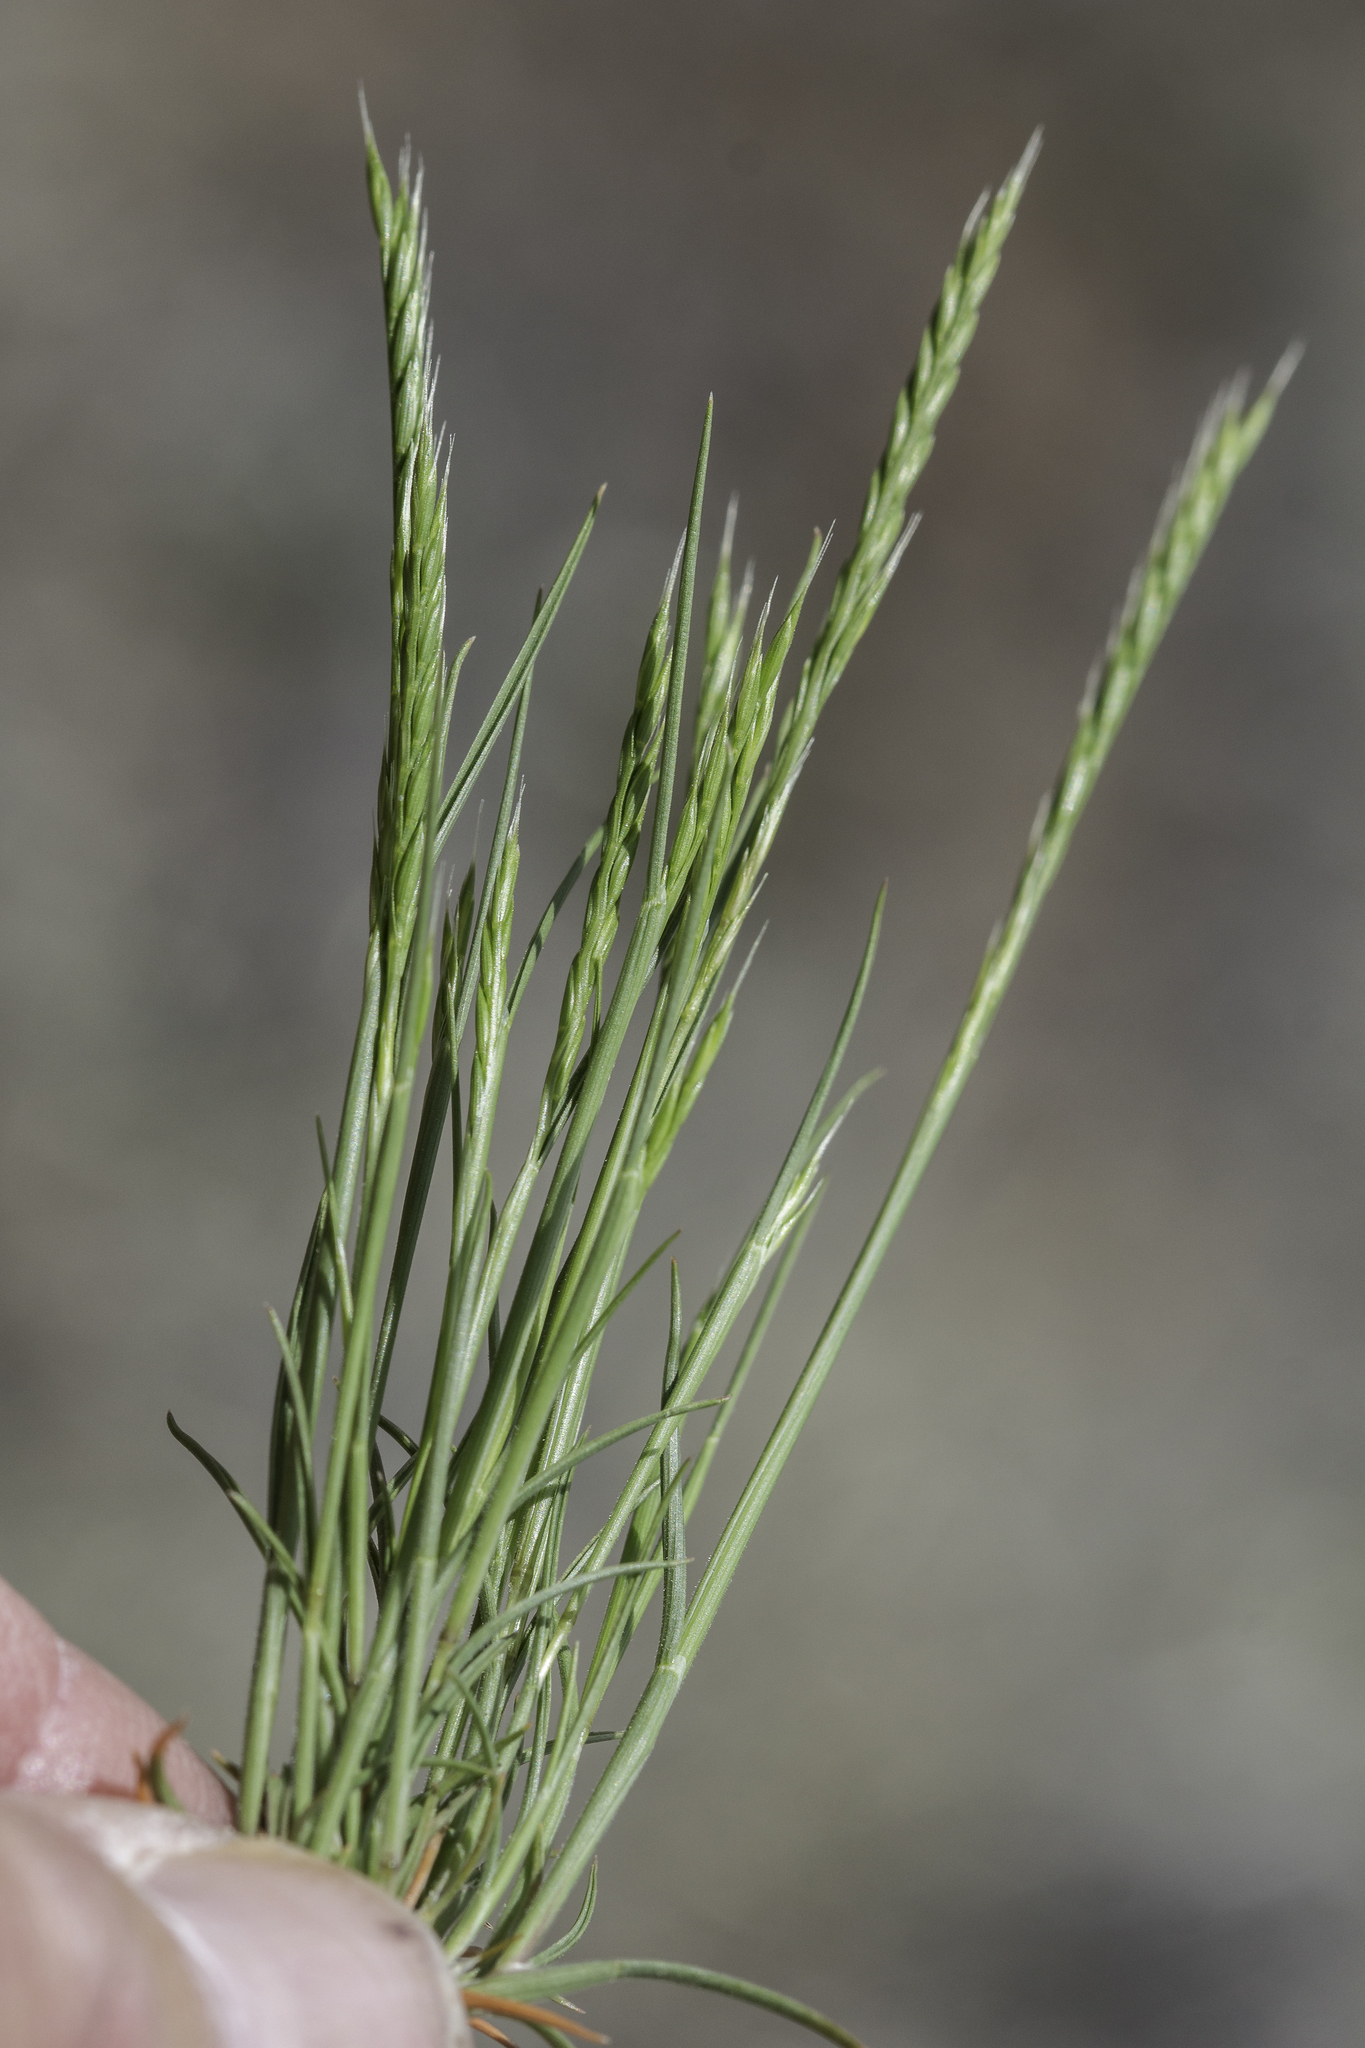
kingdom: Plantae
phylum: Tracheophyta
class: Liliopsida
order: Poales
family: Poaceae
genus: Festuca
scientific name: Festuca octoflora
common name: Sixweeks grass
